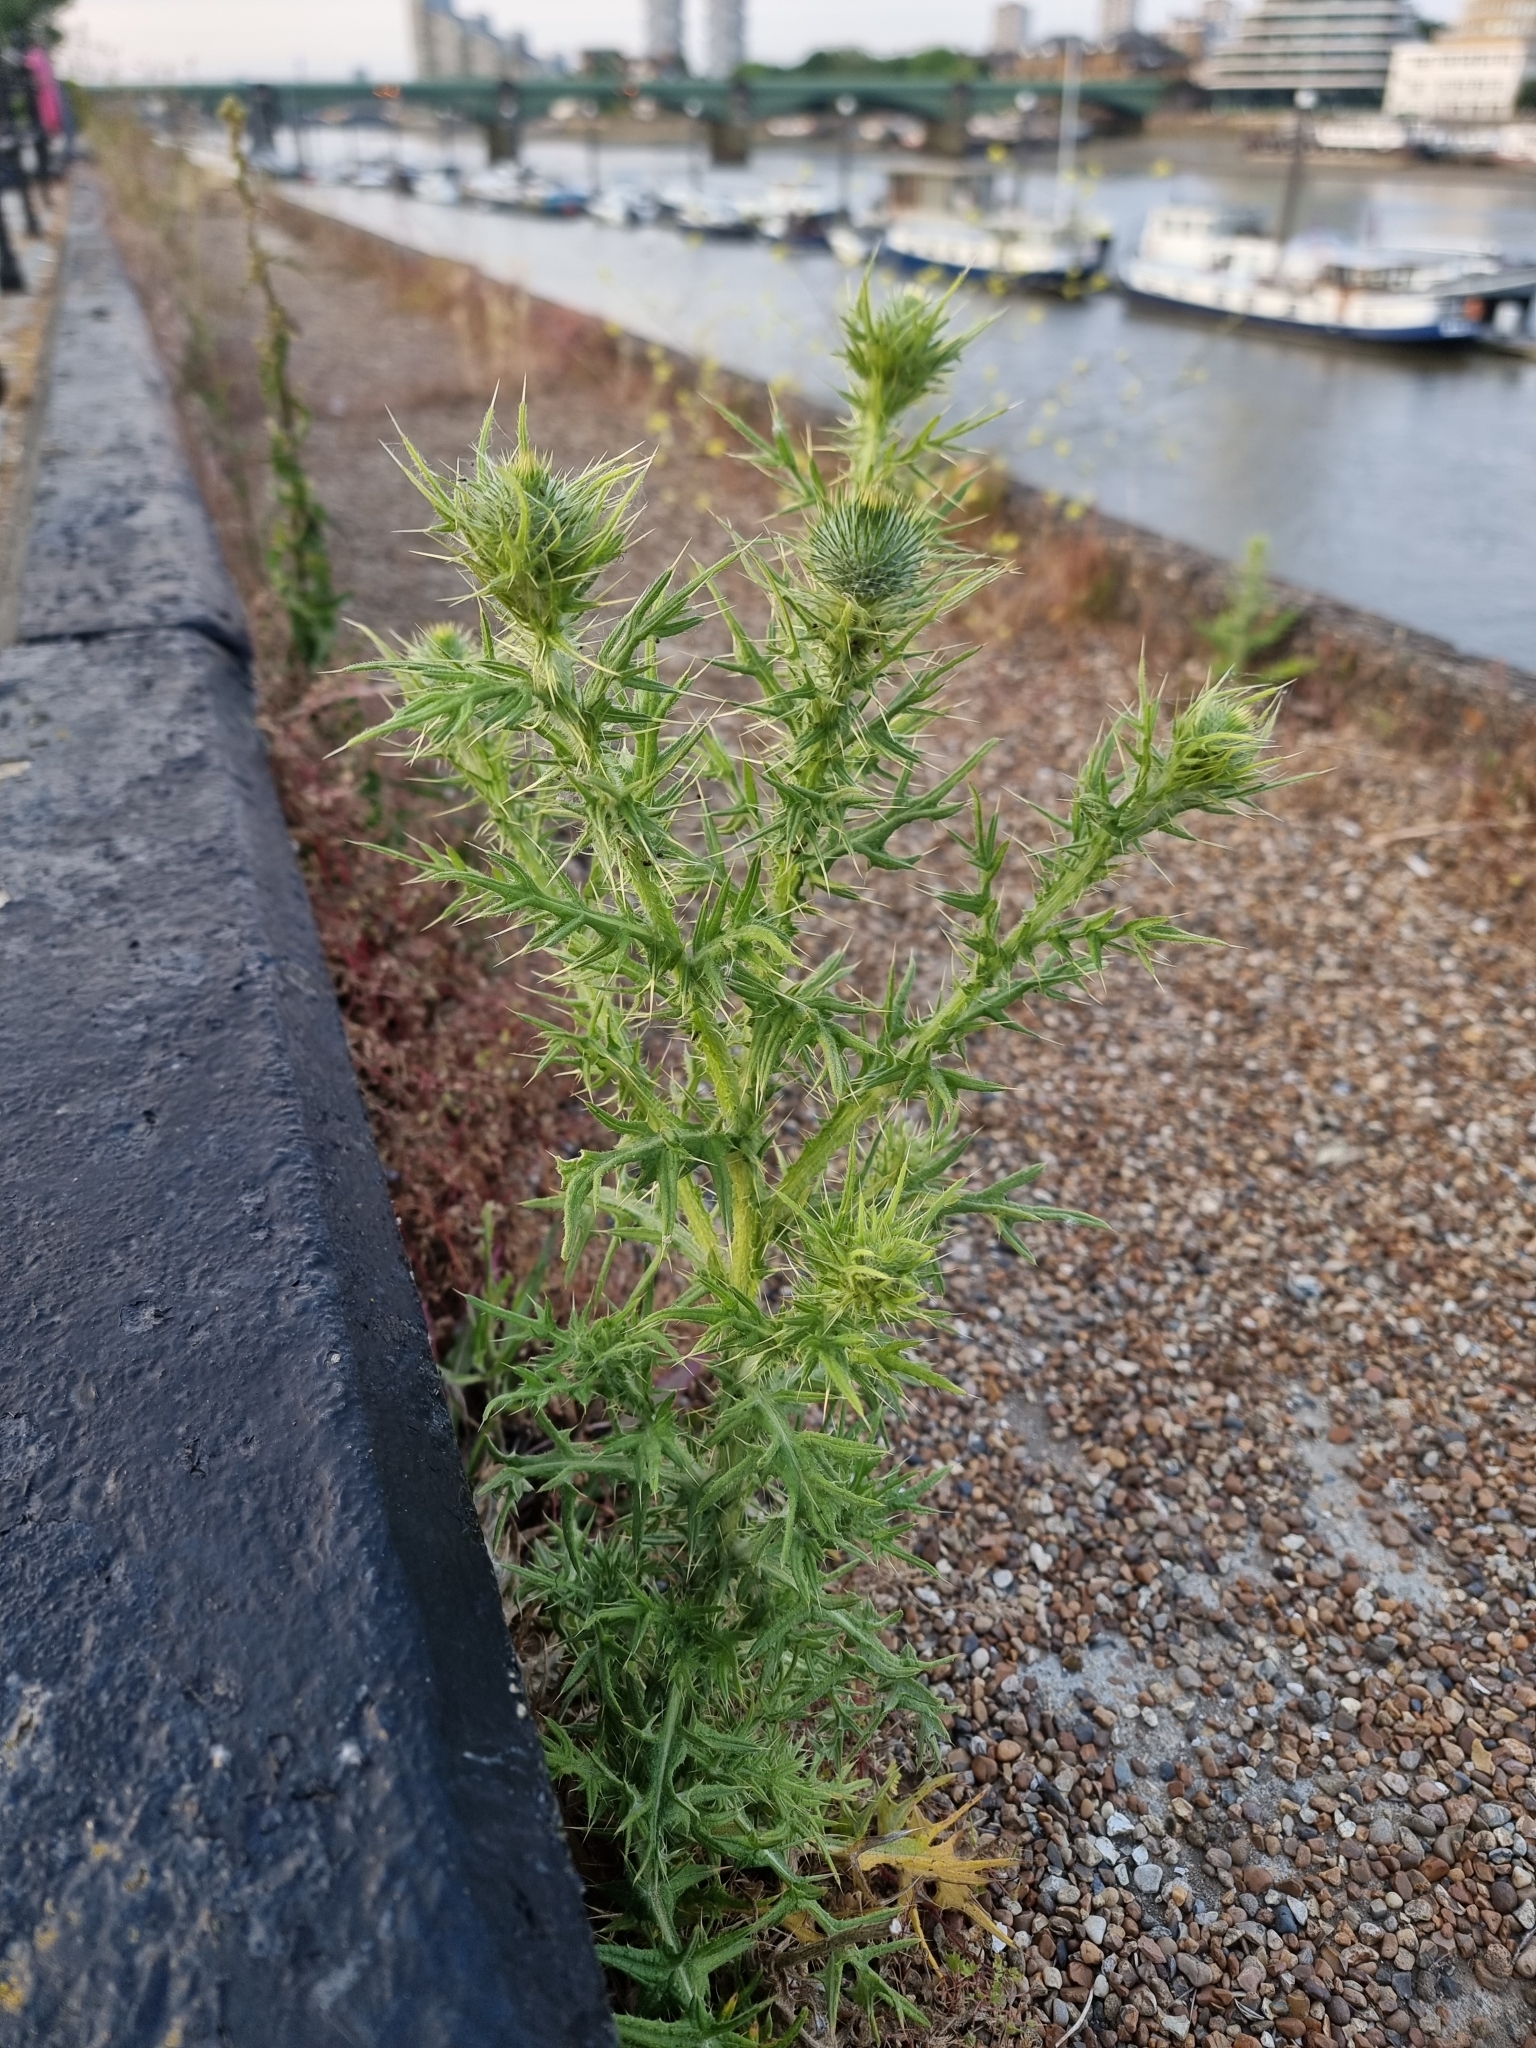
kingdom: Plantae
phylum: Tracheophyta
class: Magnoliopsida
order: Asterales
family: Asteraceae
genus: Cirsium
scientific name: Cirsium vulgare
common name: Bull thistle
